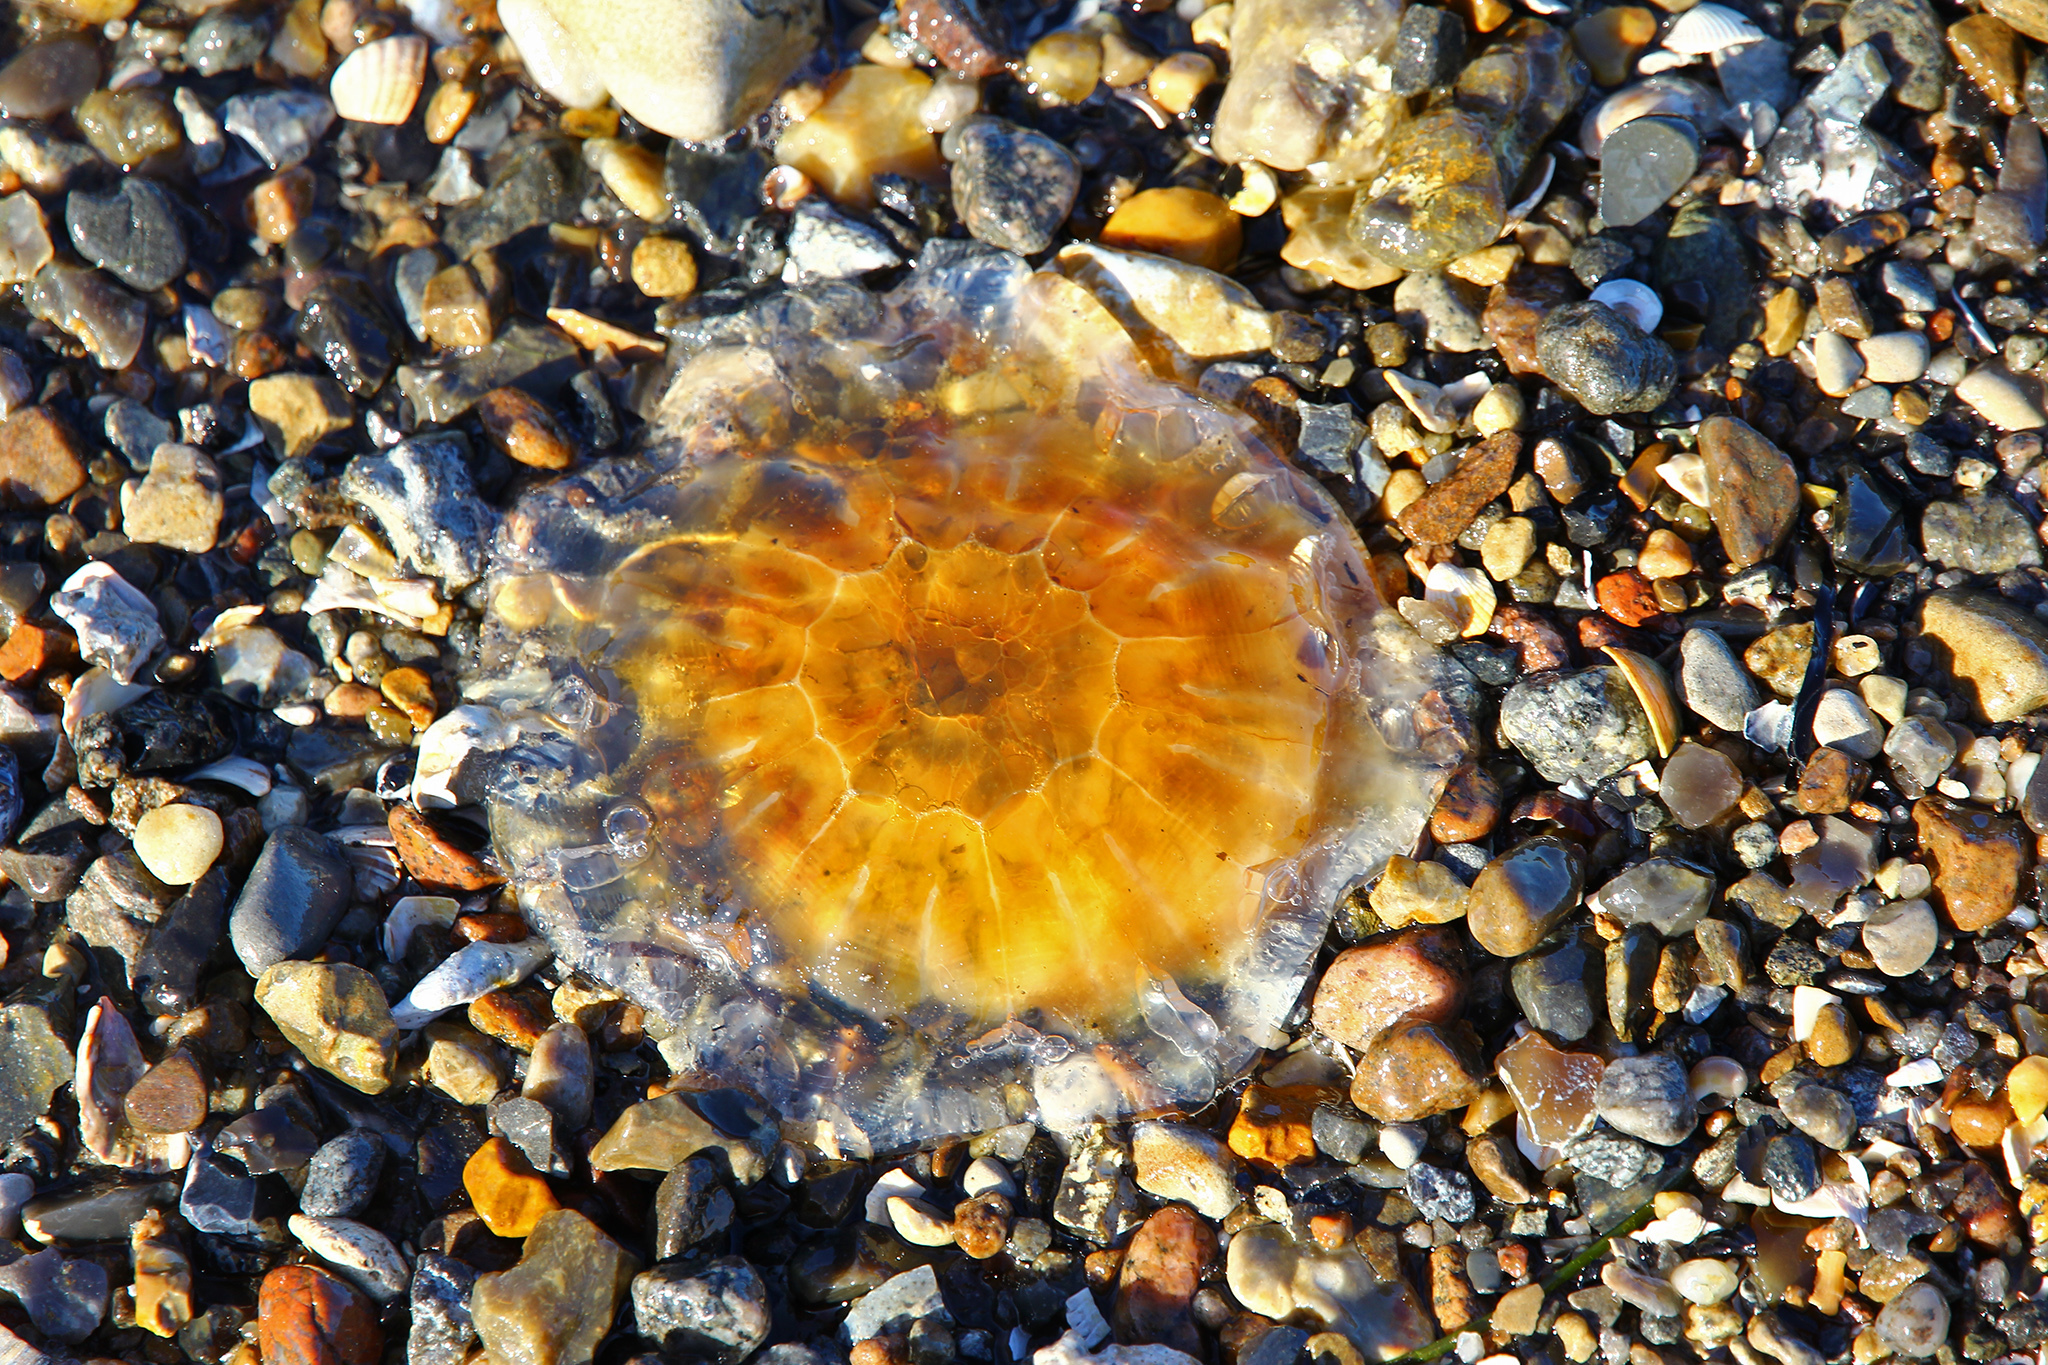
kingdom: Animalia
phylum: Cnidaria
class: Scyphozoa
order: Semaeostomeae
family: Cyaneidae
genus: Cyanea
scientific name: Cyanea capillata
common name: Lion's mane jellyfish
